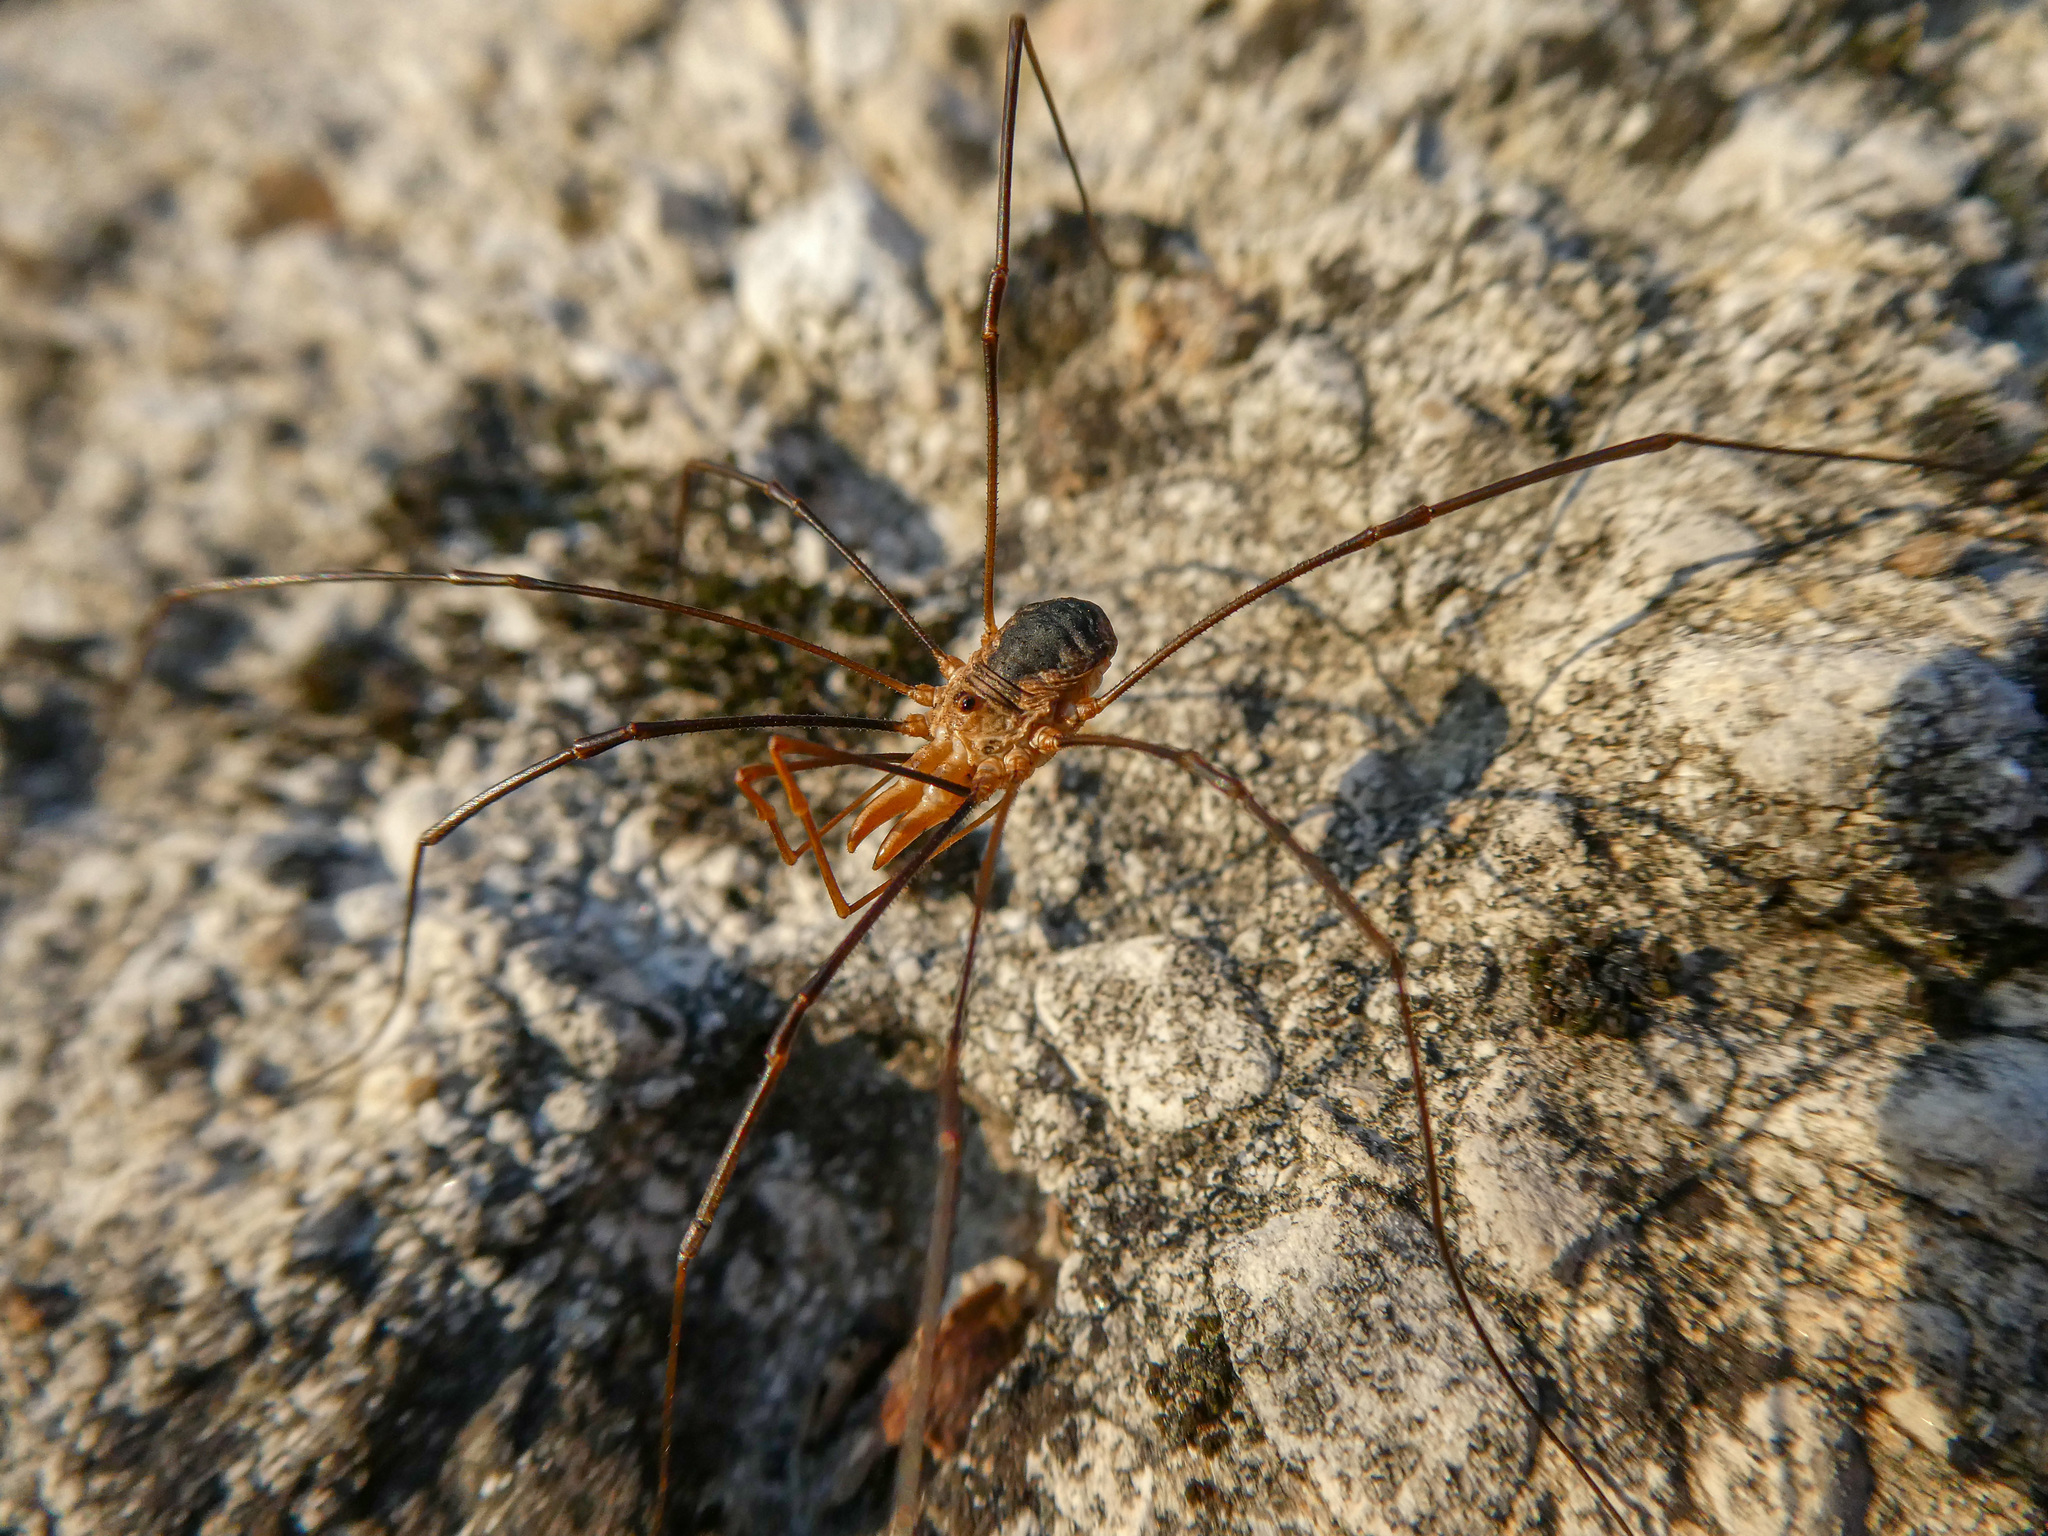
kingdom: Animalia
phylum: Arthropoda
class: Arachnida
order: Opiliones
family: Phalangiidae
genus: Phalangium
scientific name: Phalangium opilio
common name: Daddy longleg
